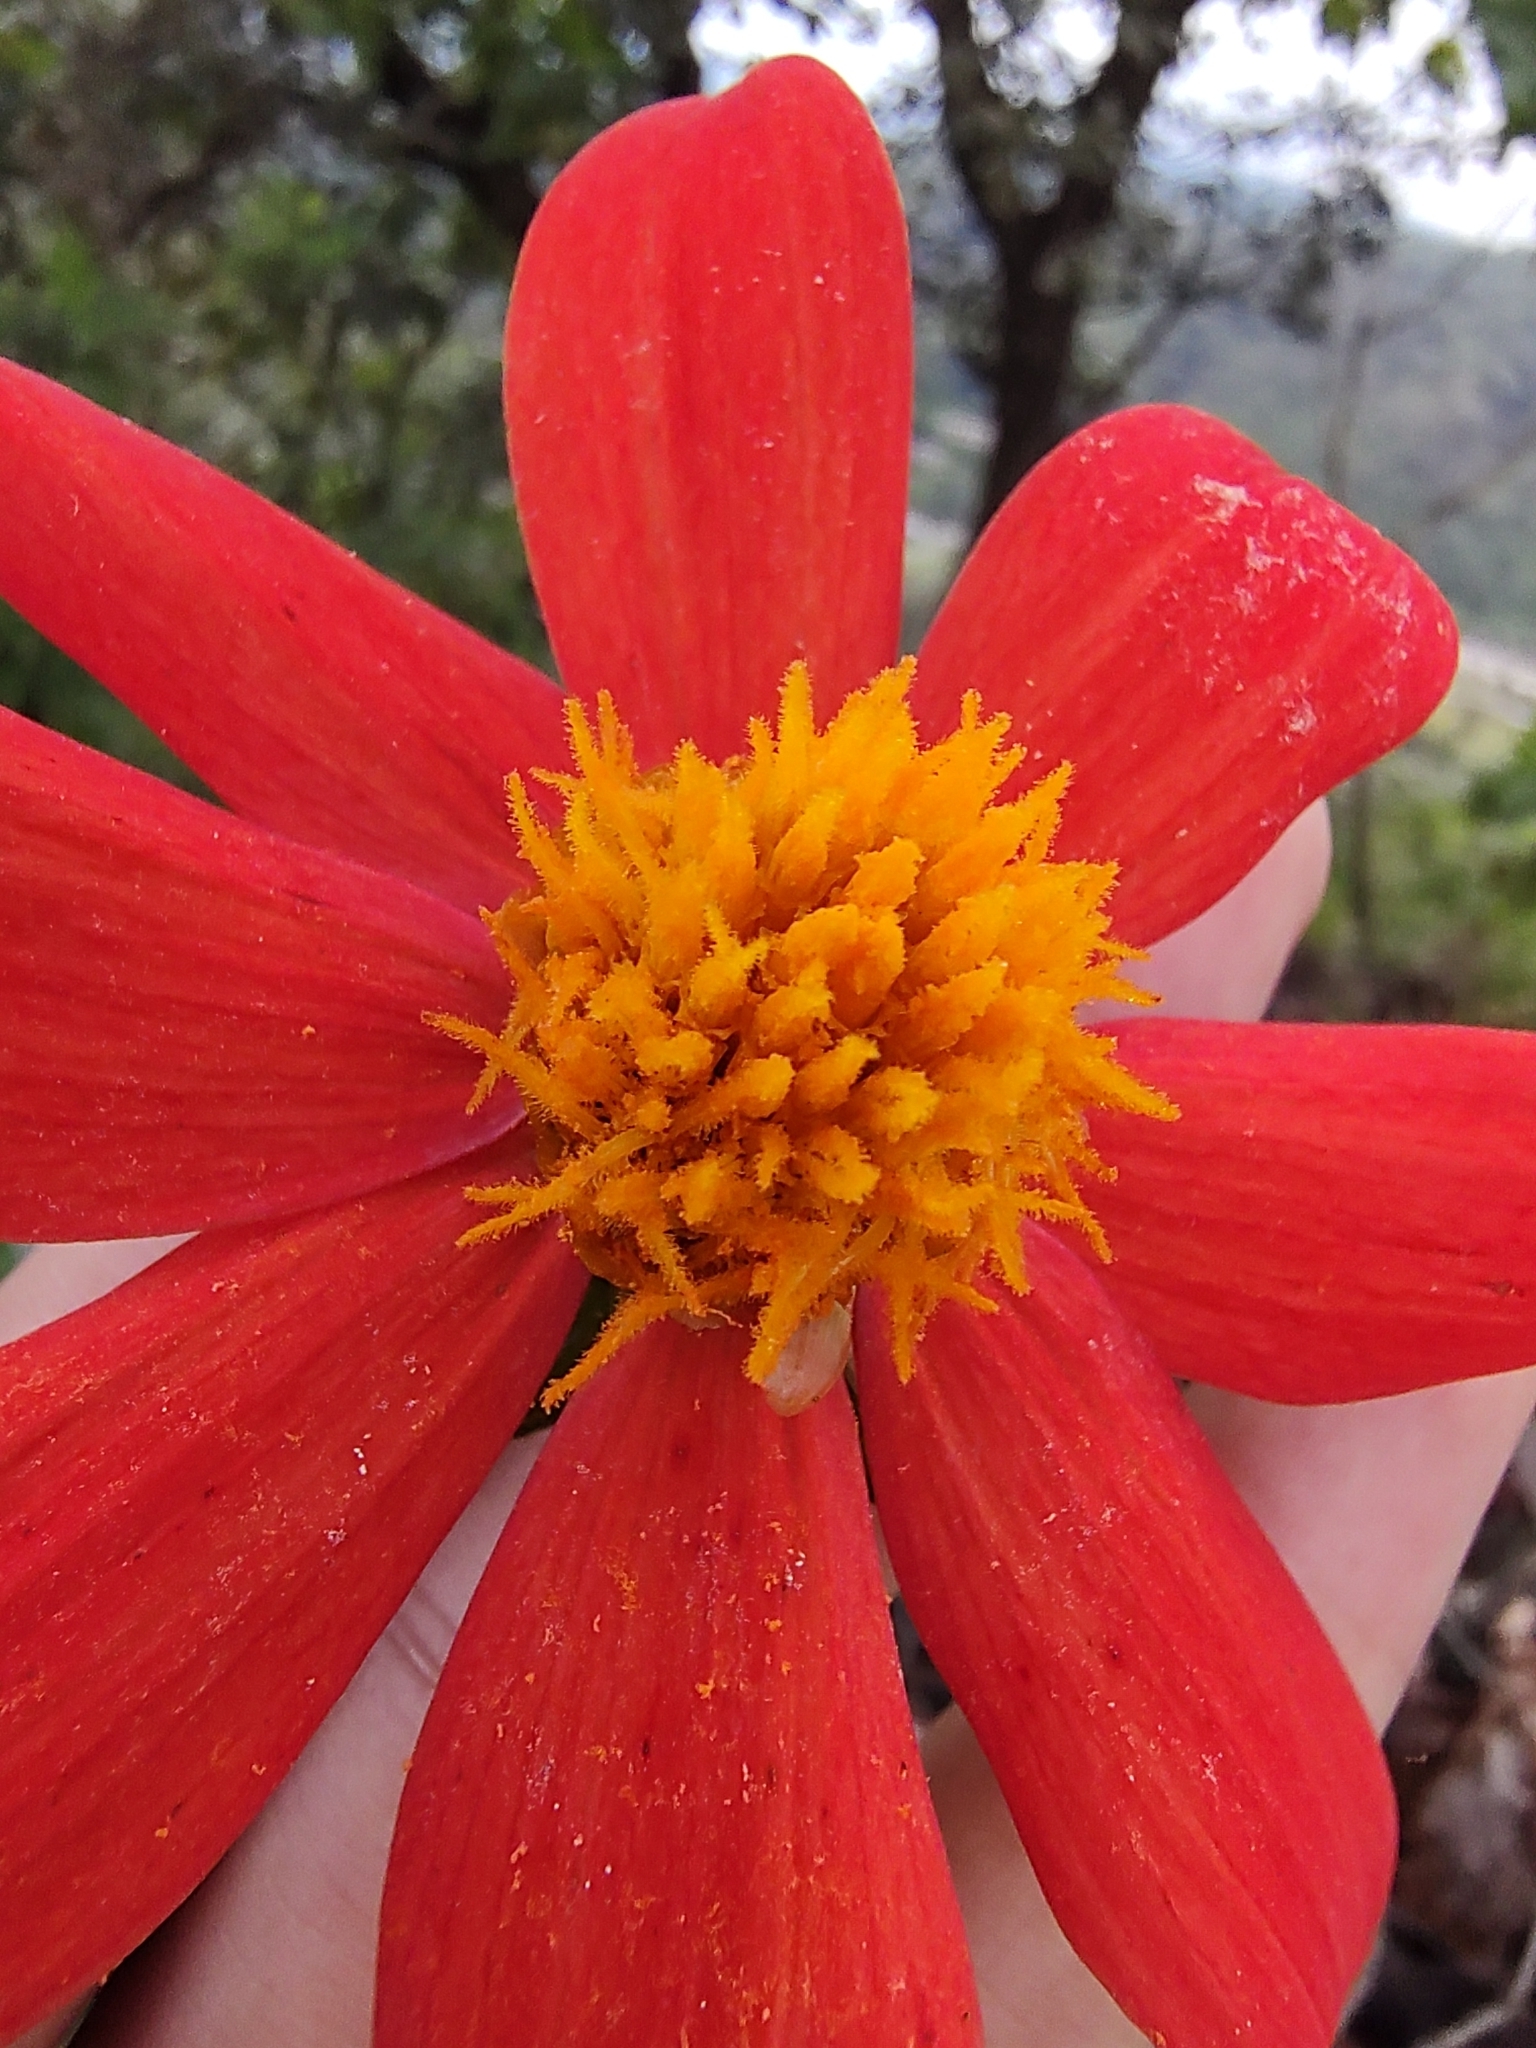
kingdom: Plantae
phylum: Tracheophyta
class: Magnoliopsida
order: Asterales
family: Asteraceae
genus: Dahlia
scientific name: Dahlia coccinea
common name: Red dahlia
